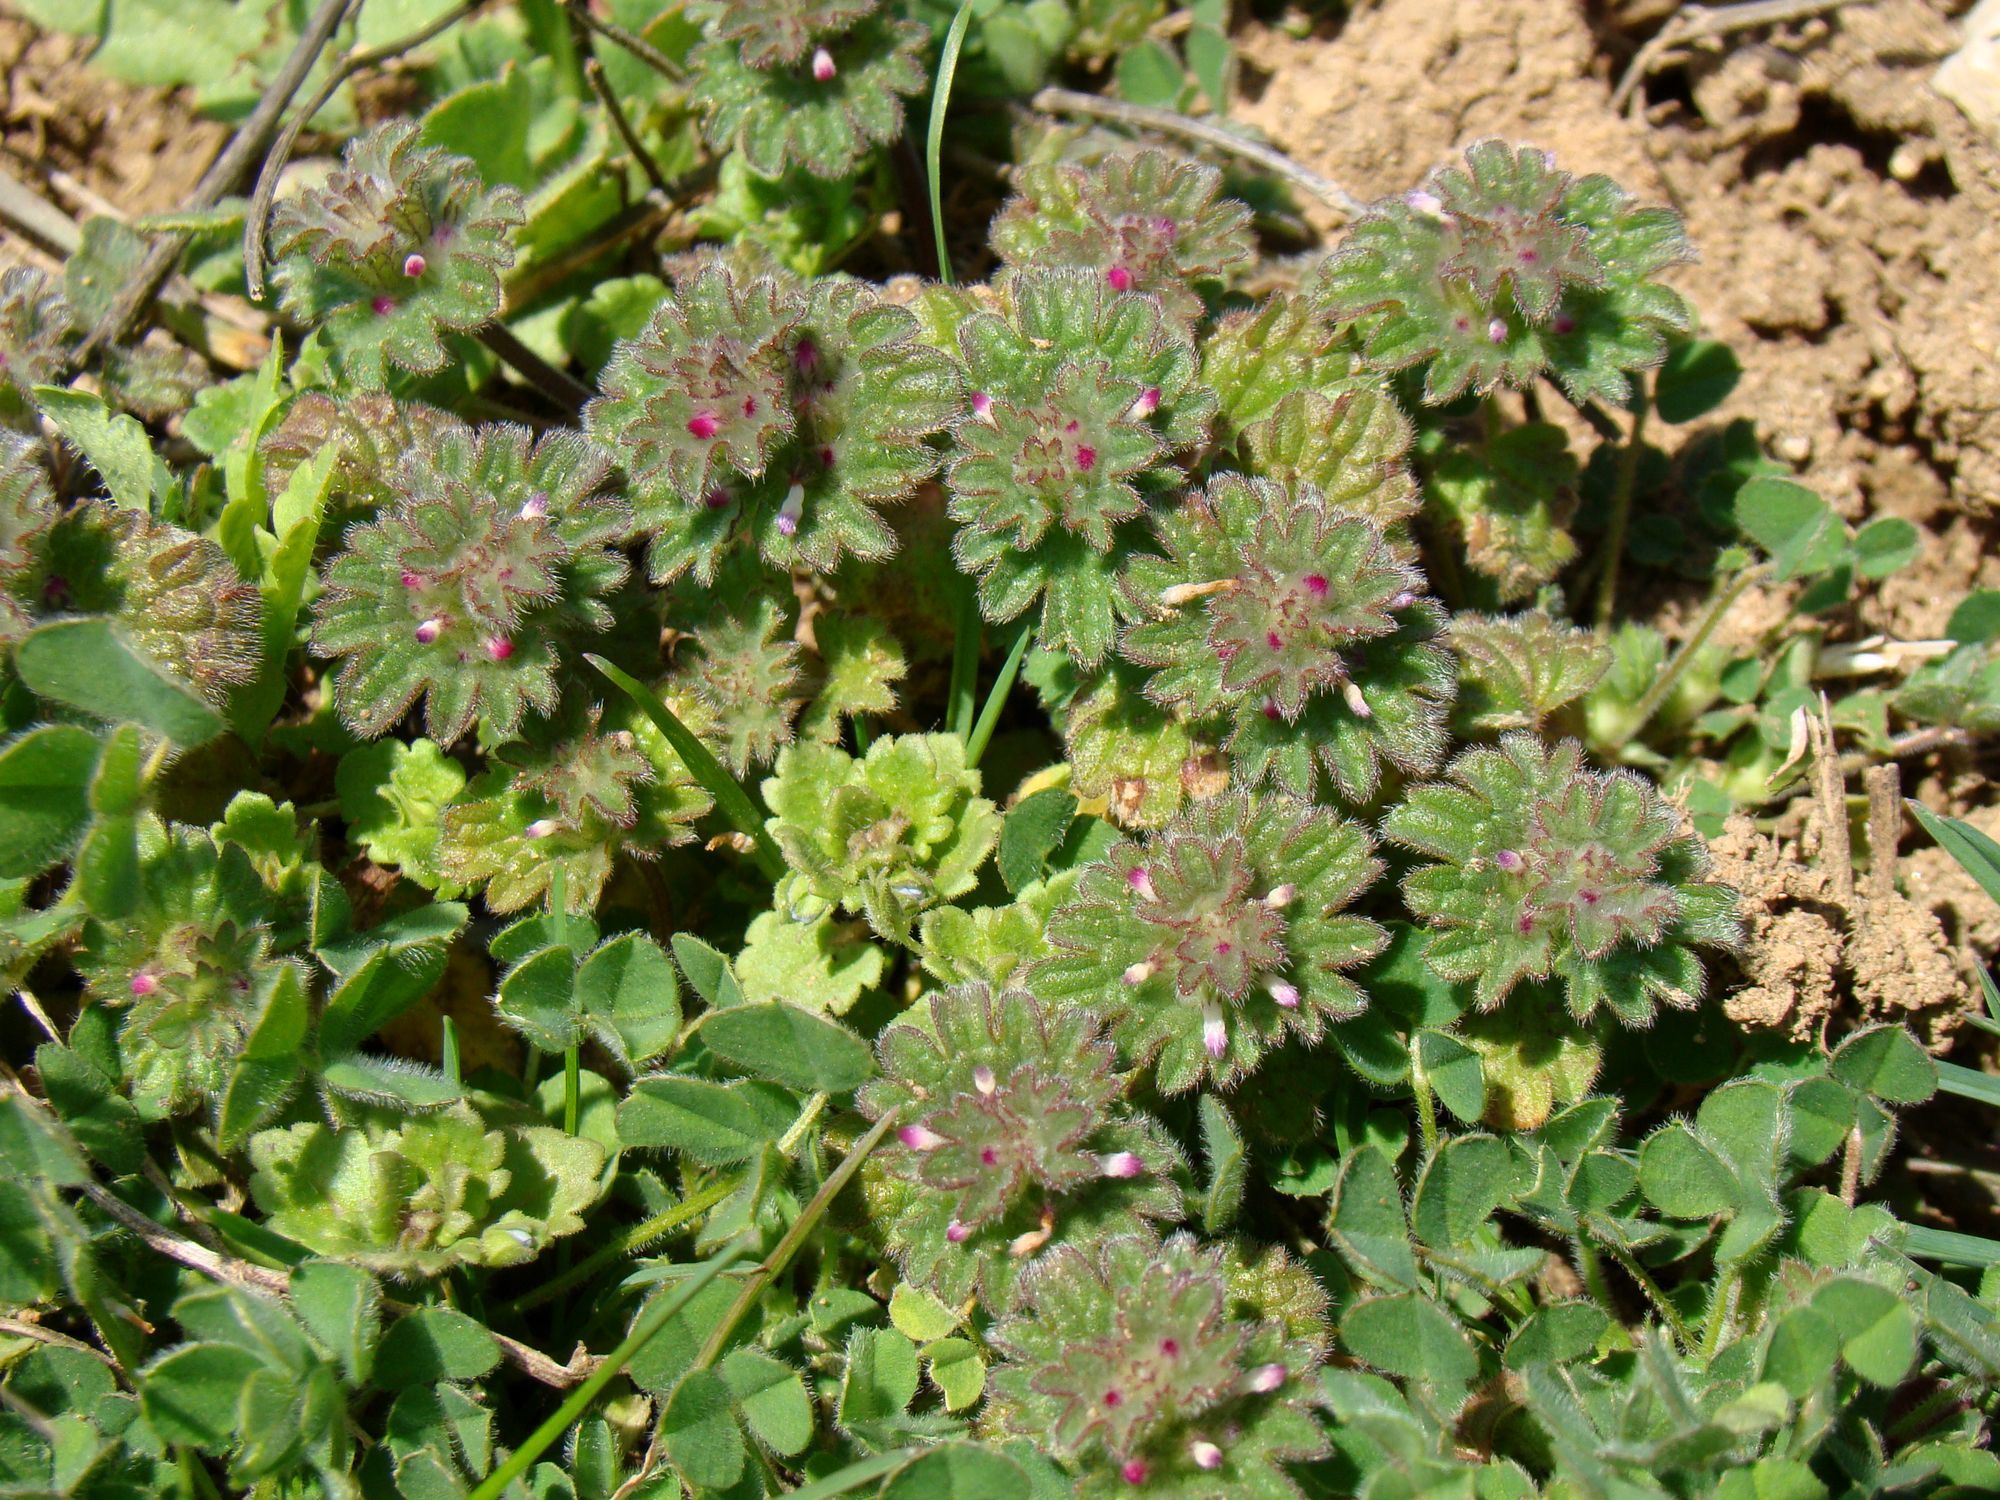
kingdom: Plantae
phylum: Tracheophyta
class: Magnoliopsida
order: Lamiales
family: Lamiaceae
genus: Lamium
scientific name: Lamium amplexicaule
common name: Henbit dead-nettle
